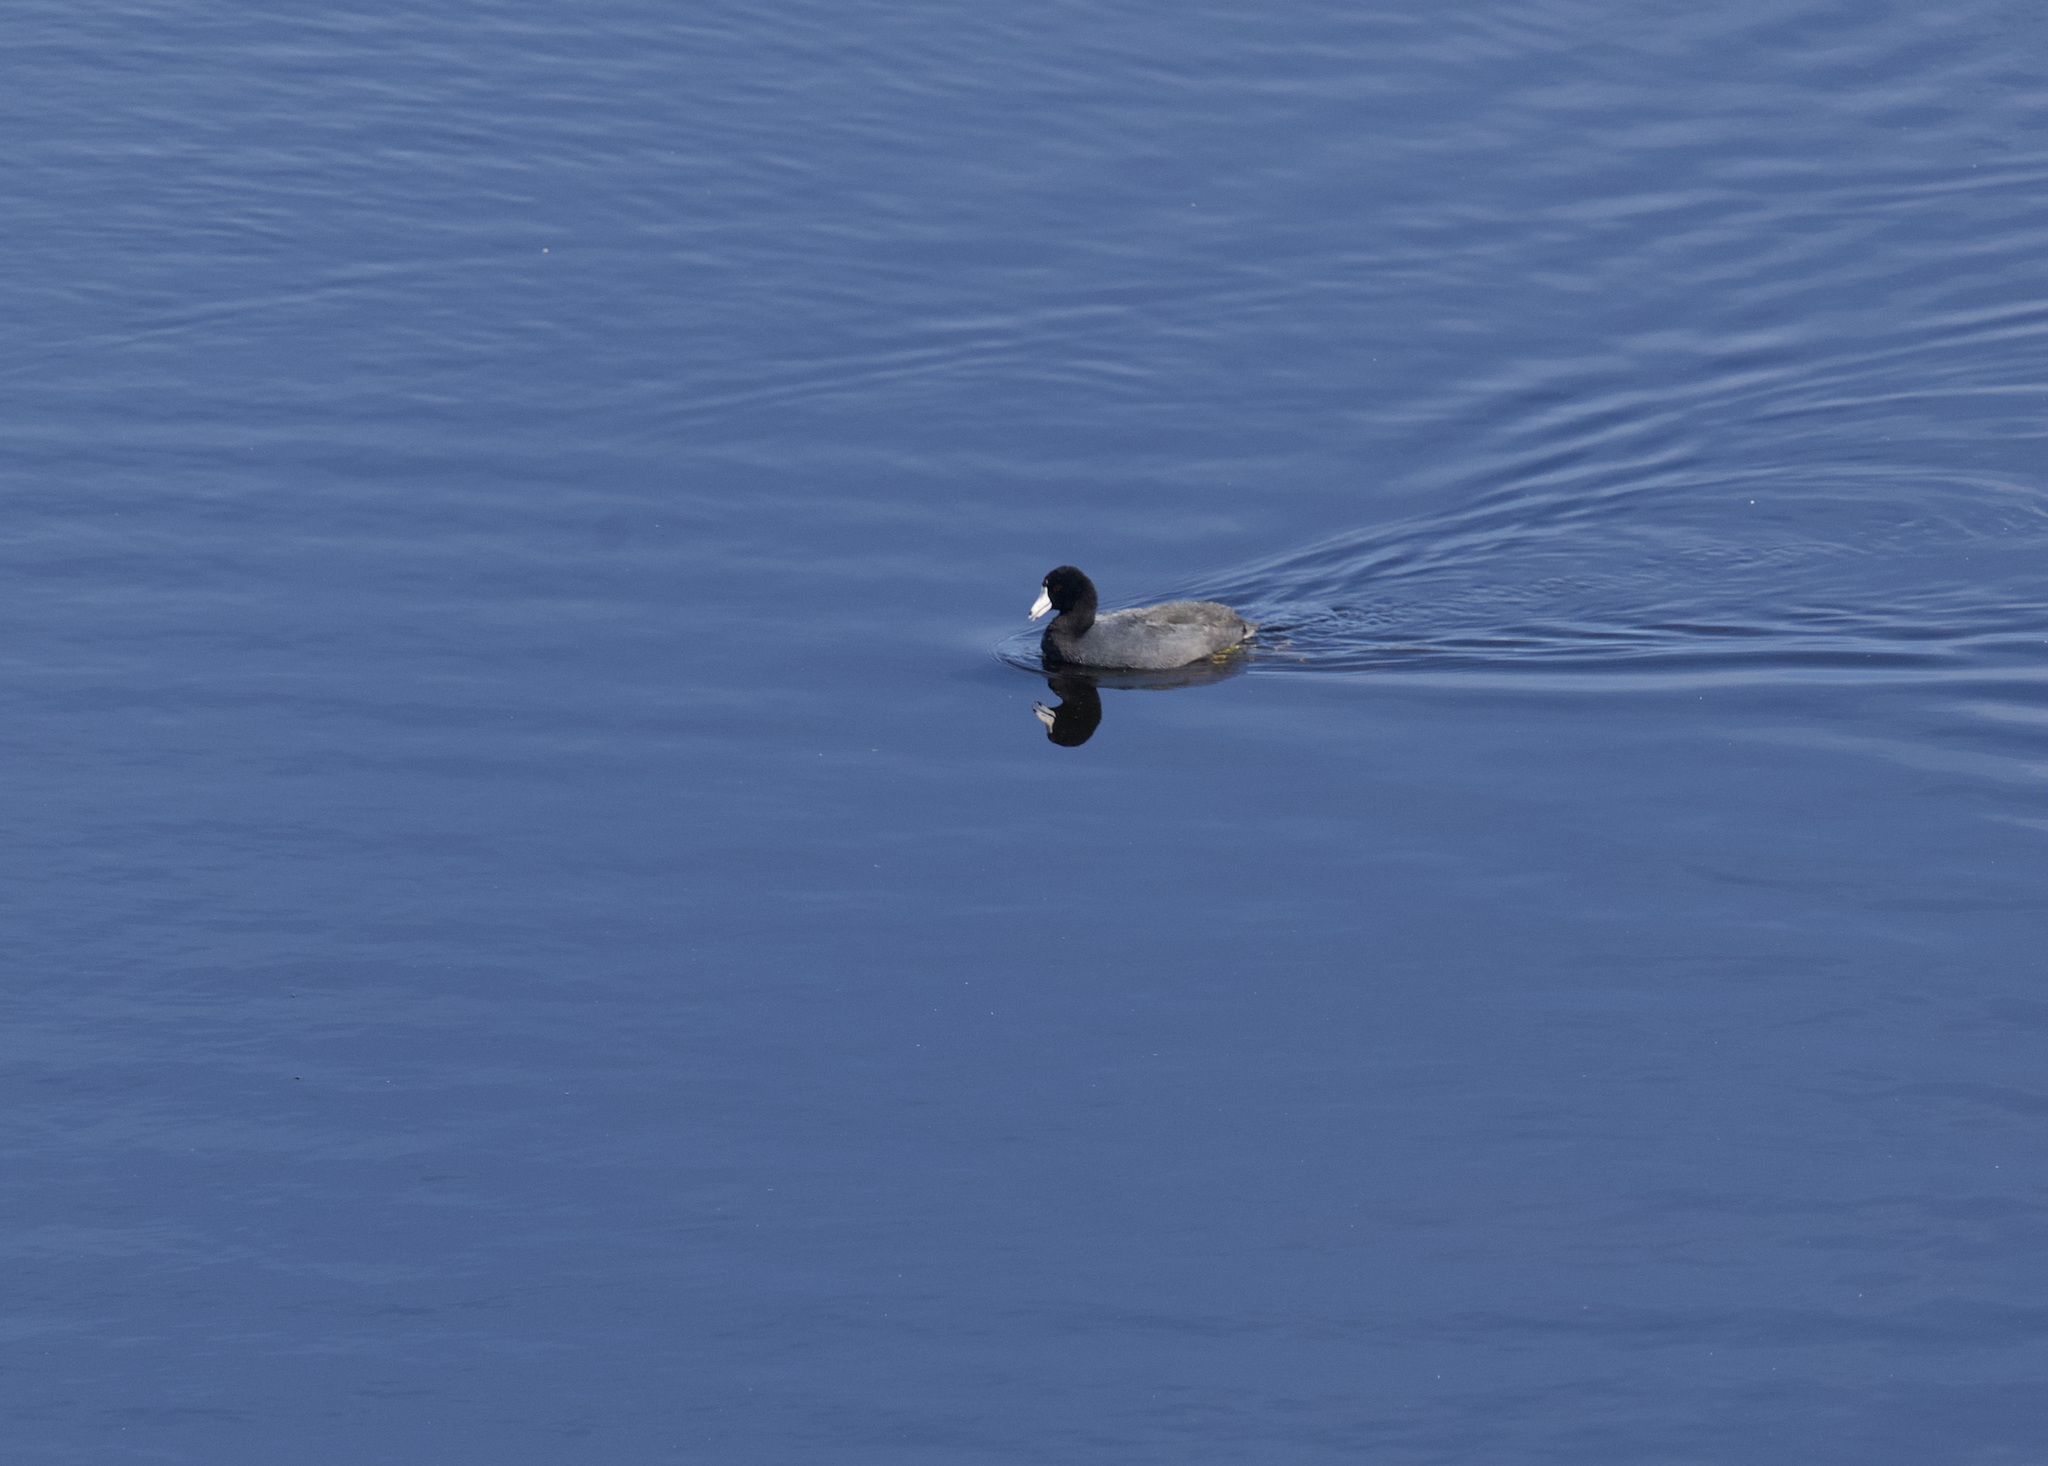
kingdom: Animalia
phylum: Chordata
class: Aves
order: Gruiformes
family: Rallidae
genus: Fulica
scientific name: Fulica americana
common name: American coot
